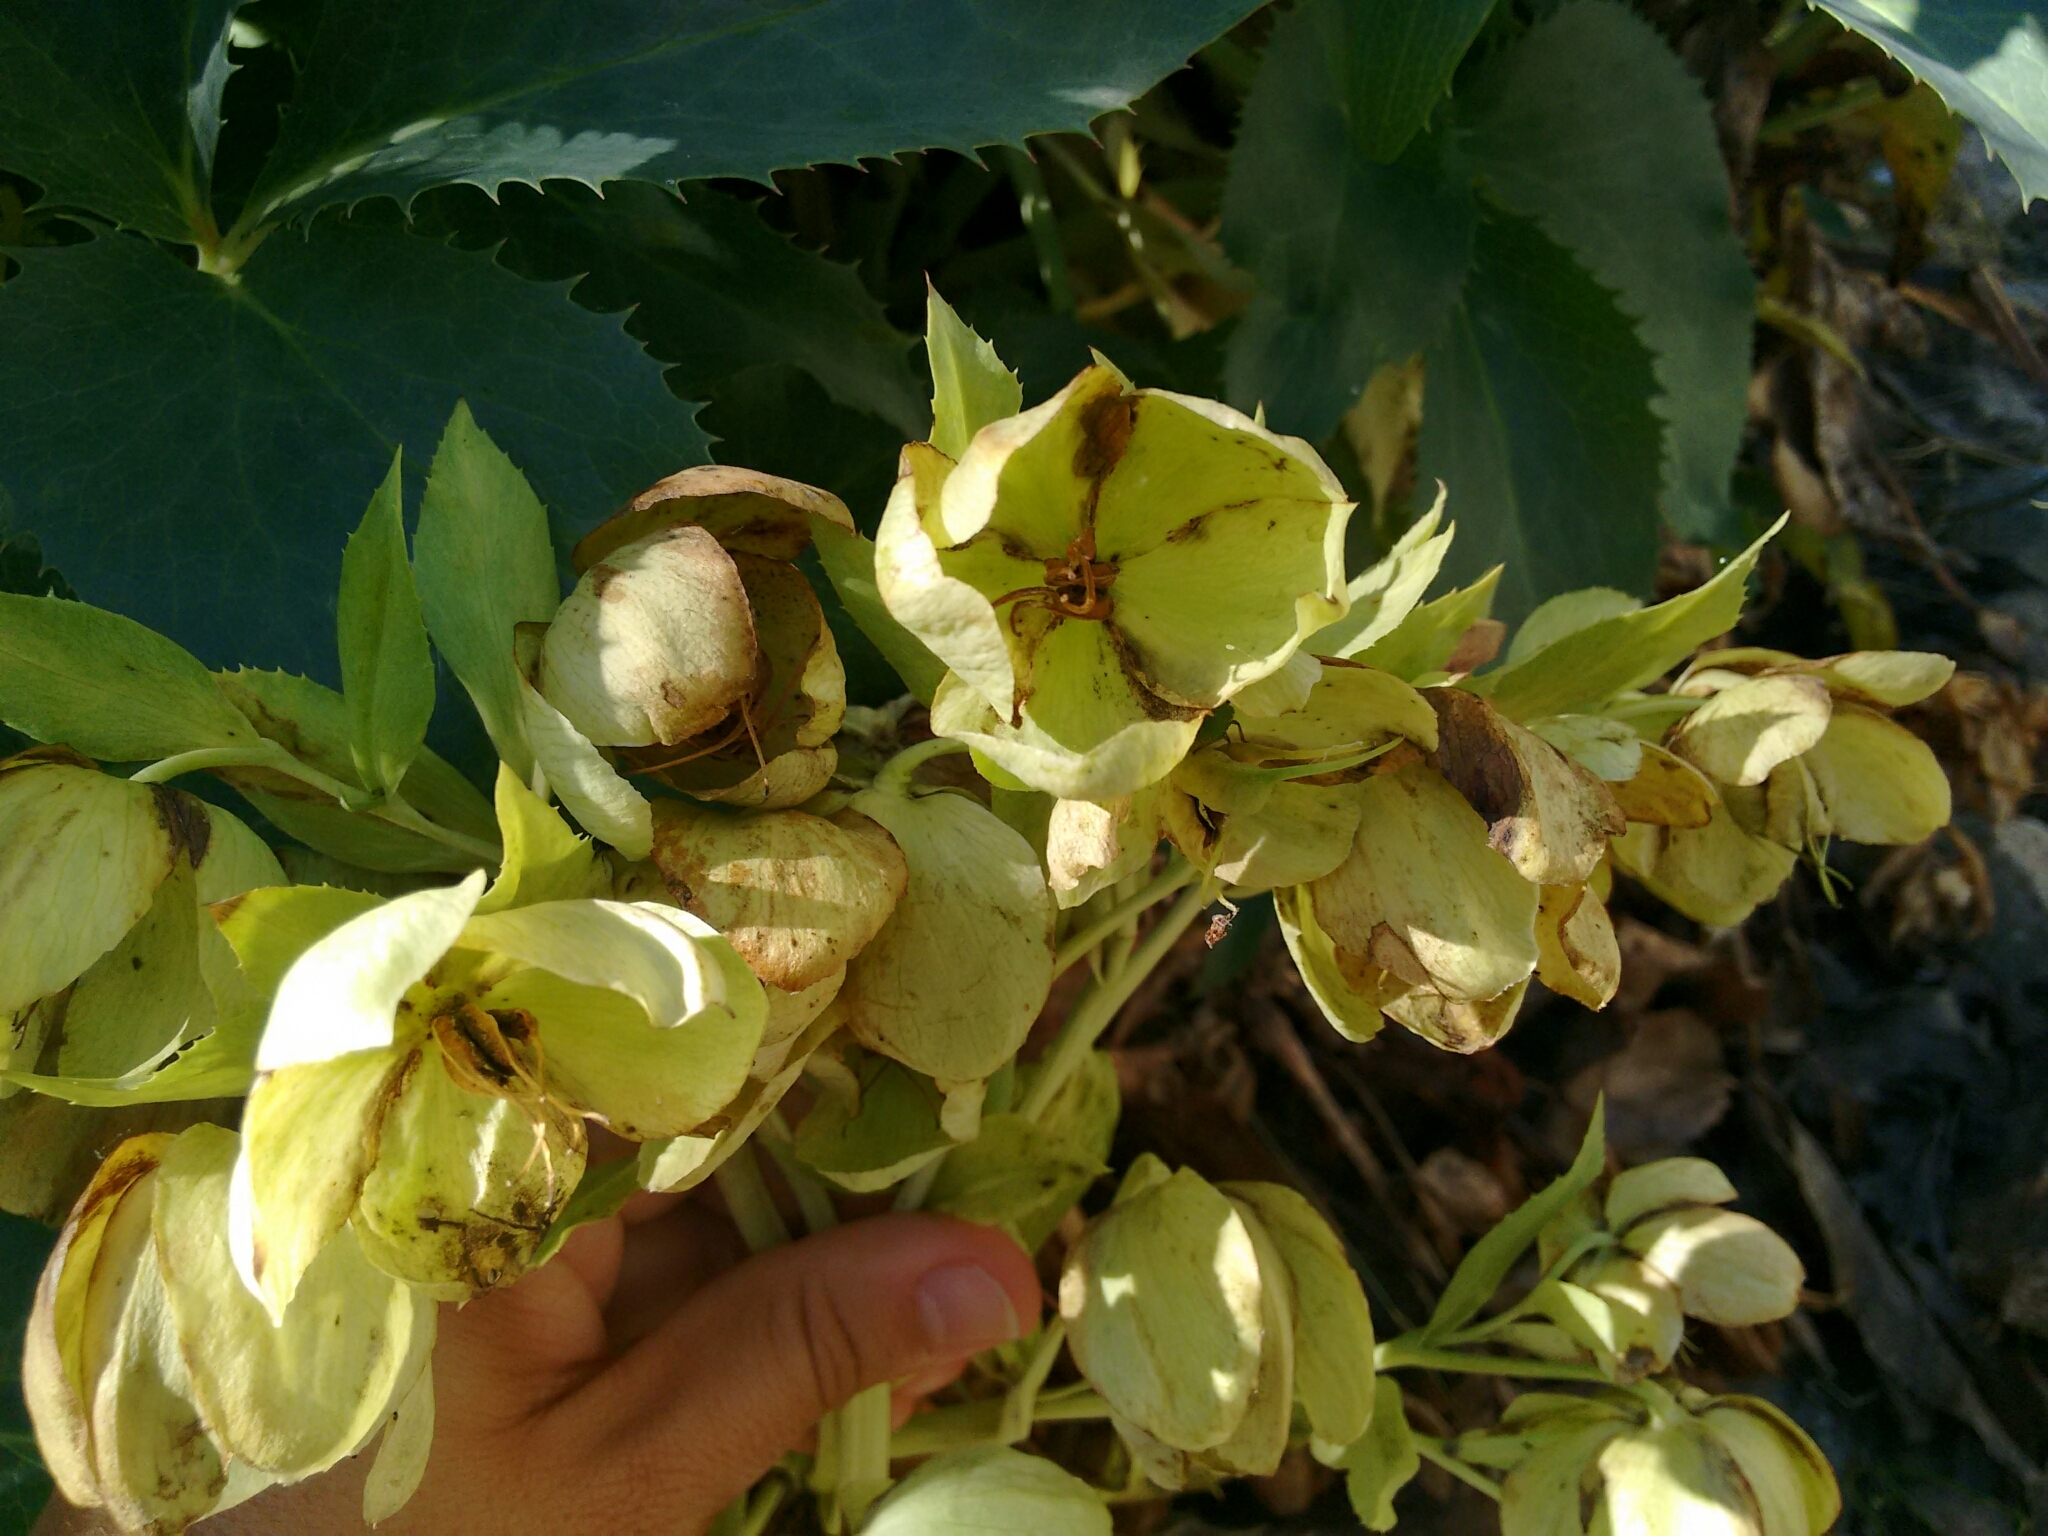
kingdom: Plantae
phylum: Tracheophyta
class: Magnoliopsida
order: Ranunculales
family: Ranunculaceae
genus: Helleborus
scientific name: Helleborus argutifolius
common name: Corsican hellebore
